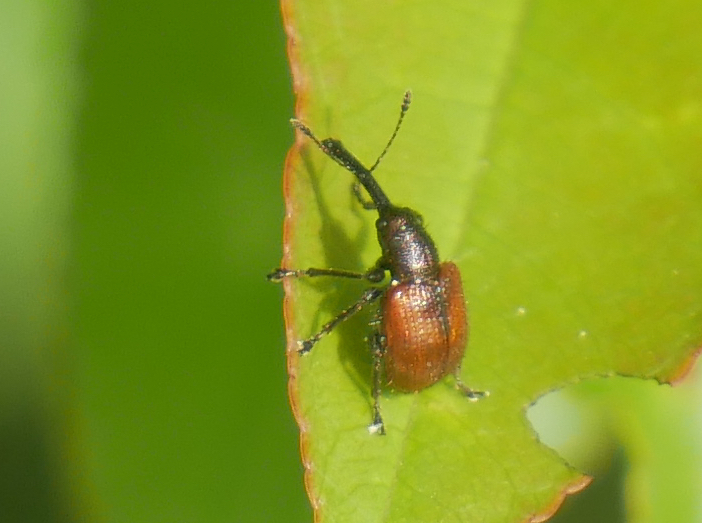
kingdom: Animalia
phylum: Arthropoda
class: Insecta
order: Coleoptera
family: Rhynchitidae
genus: Tatianaerhynchites
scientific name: Tatianaerhynchites aequatus
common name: Apple fruit rhynchites
